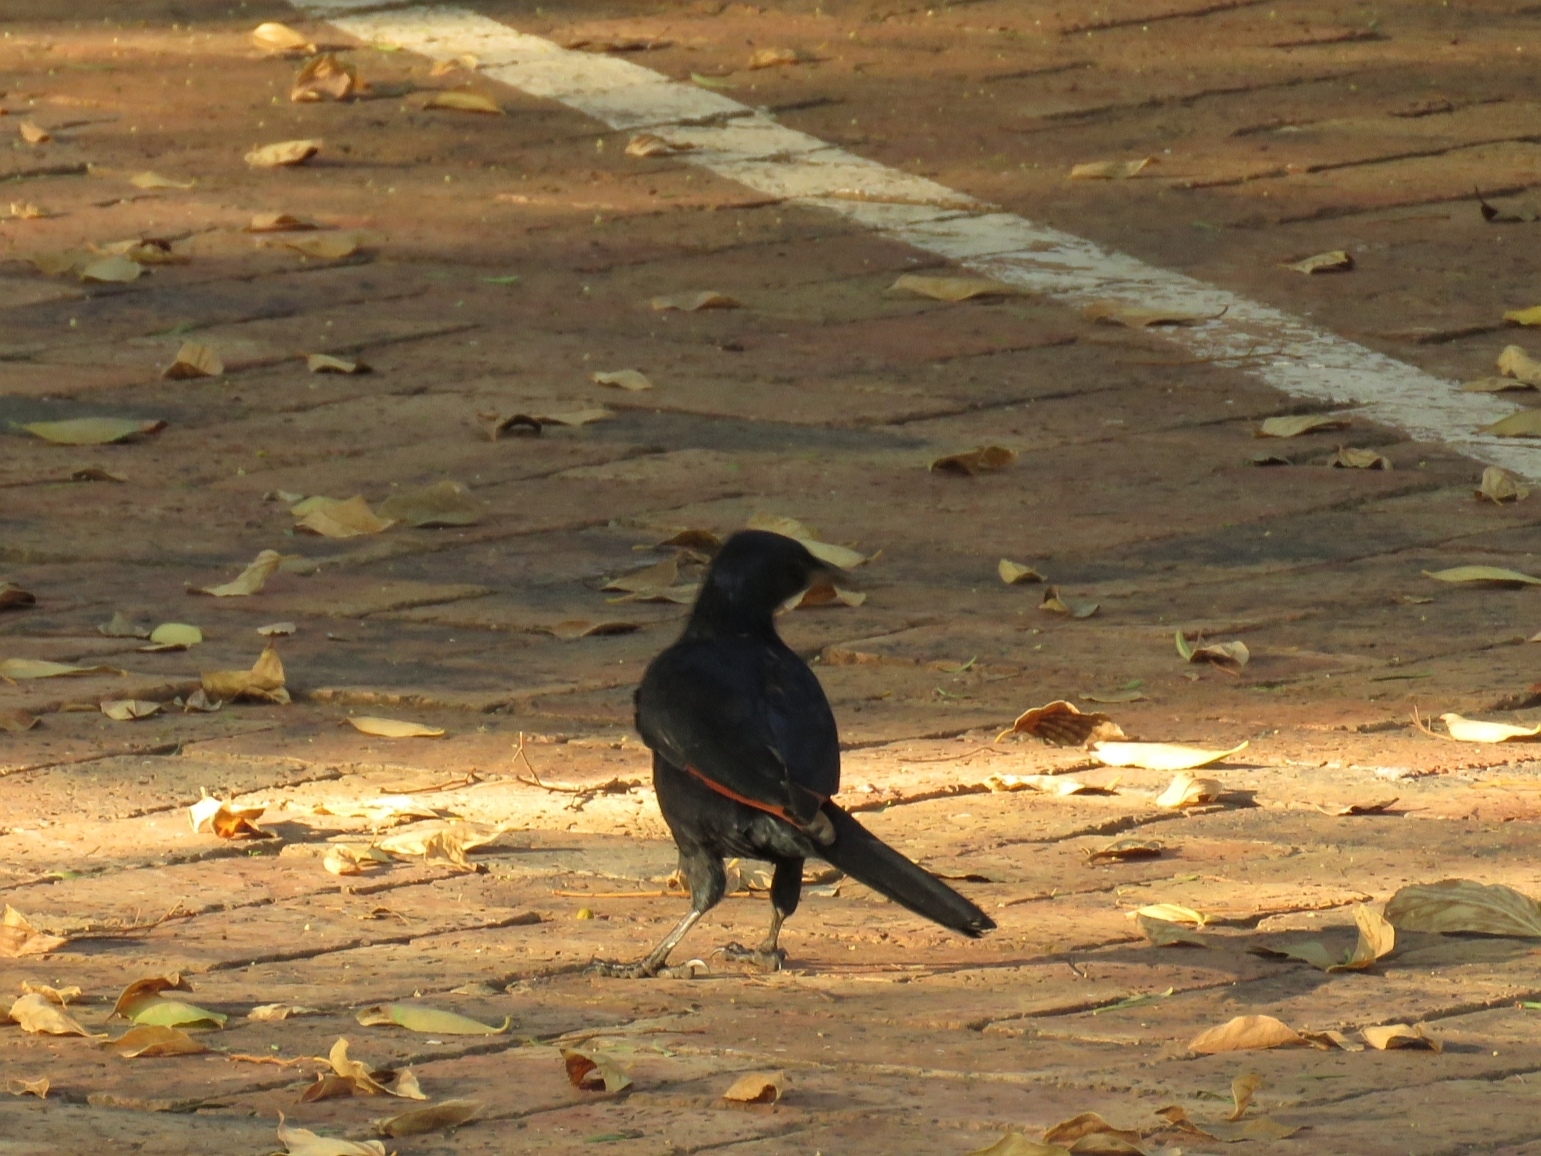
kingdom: Animalia
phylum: Chordata
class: Aves
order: Passeriformes
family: Sturnidae
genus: Onychognathus
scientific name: Onychognathus morio
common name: Red-winged starling
